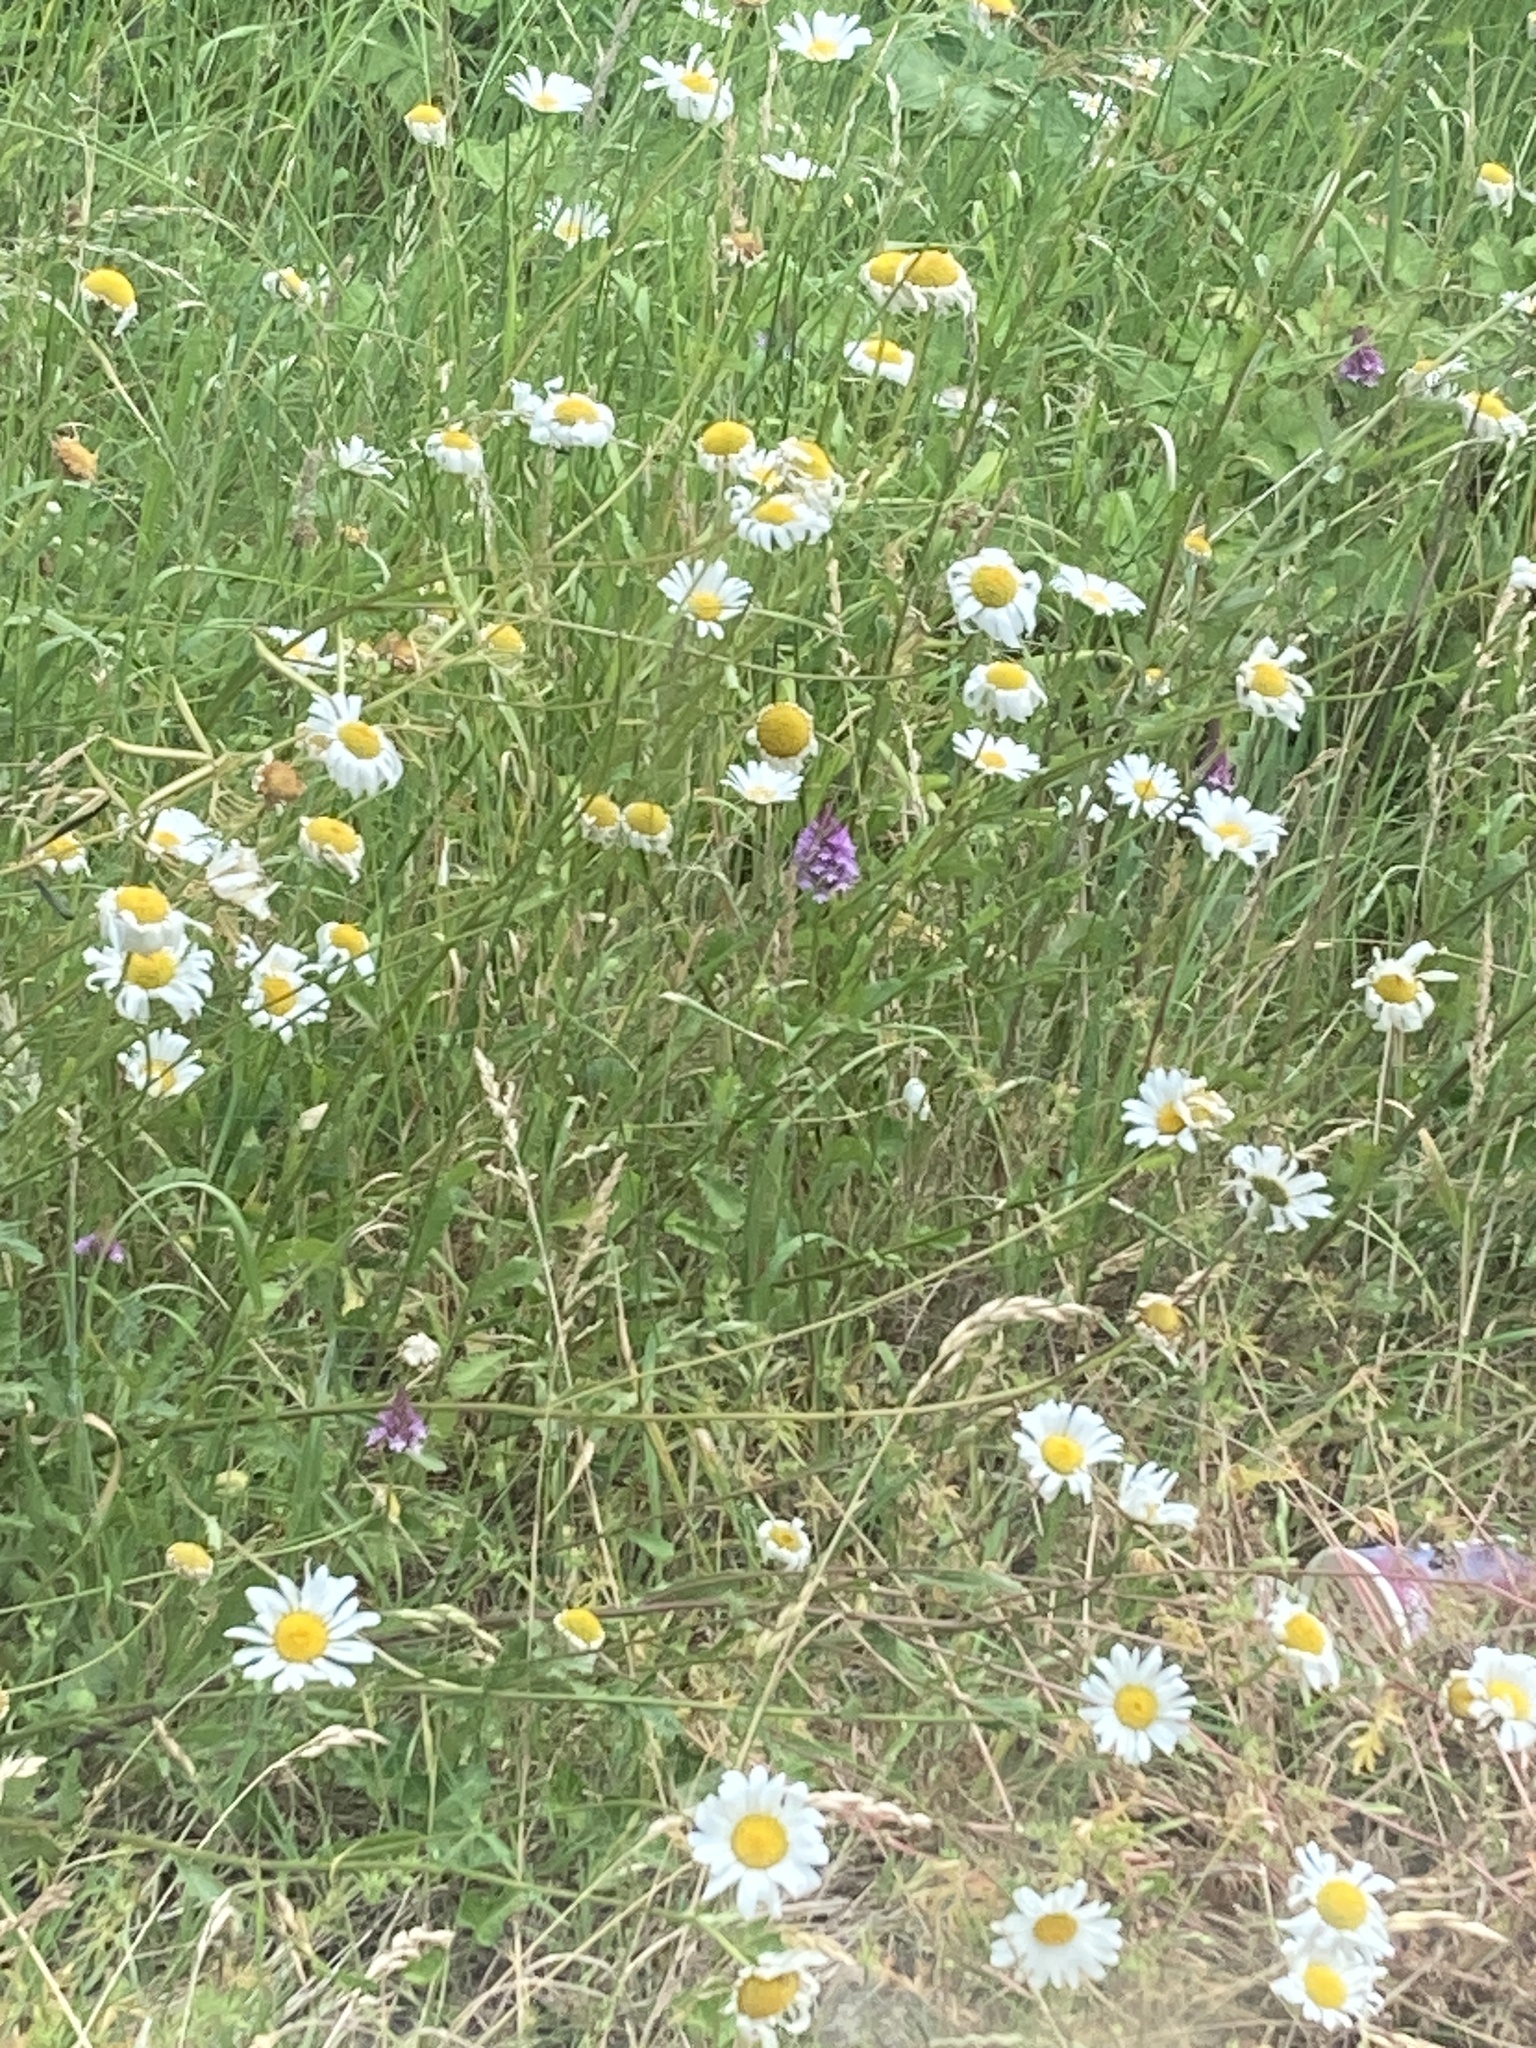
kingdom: Plantae
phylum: Tracheophyta
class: Liliopsida
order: Asparagales
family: Orchidaceae
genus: Anacamptis
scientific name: Anacamptis pyramidalis
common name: Pyramidal orchid
